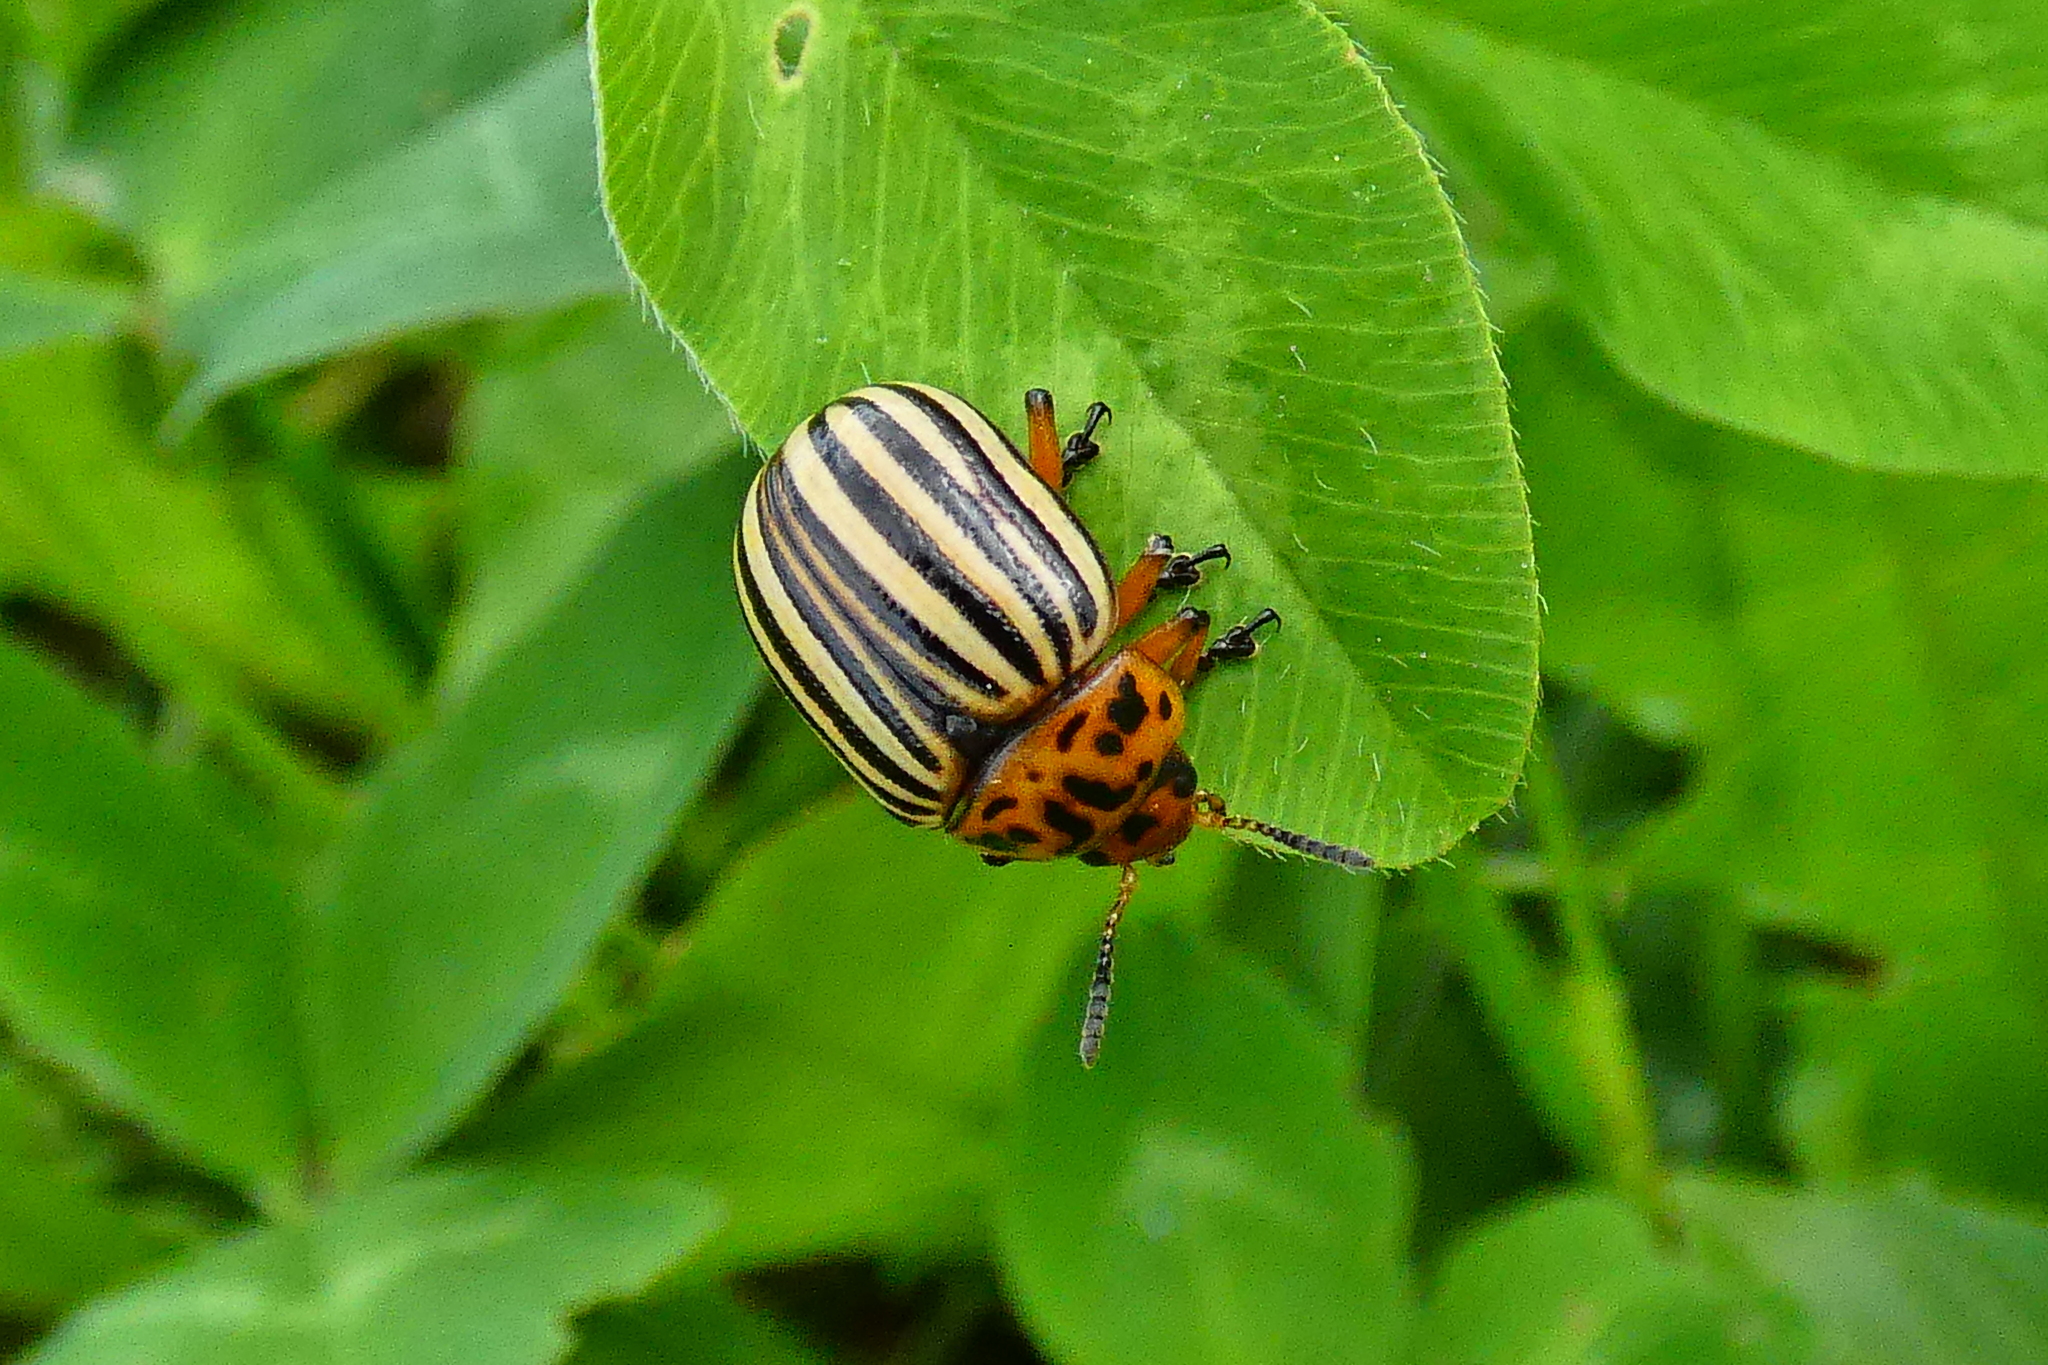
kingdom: Animalia
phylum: Arthropoda
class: Insecta
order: Coleoptera
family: Chrysomelidae
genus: Leptinotarsa
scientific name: Leptinotarsa decemlineata
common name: Colorado potato beetle
